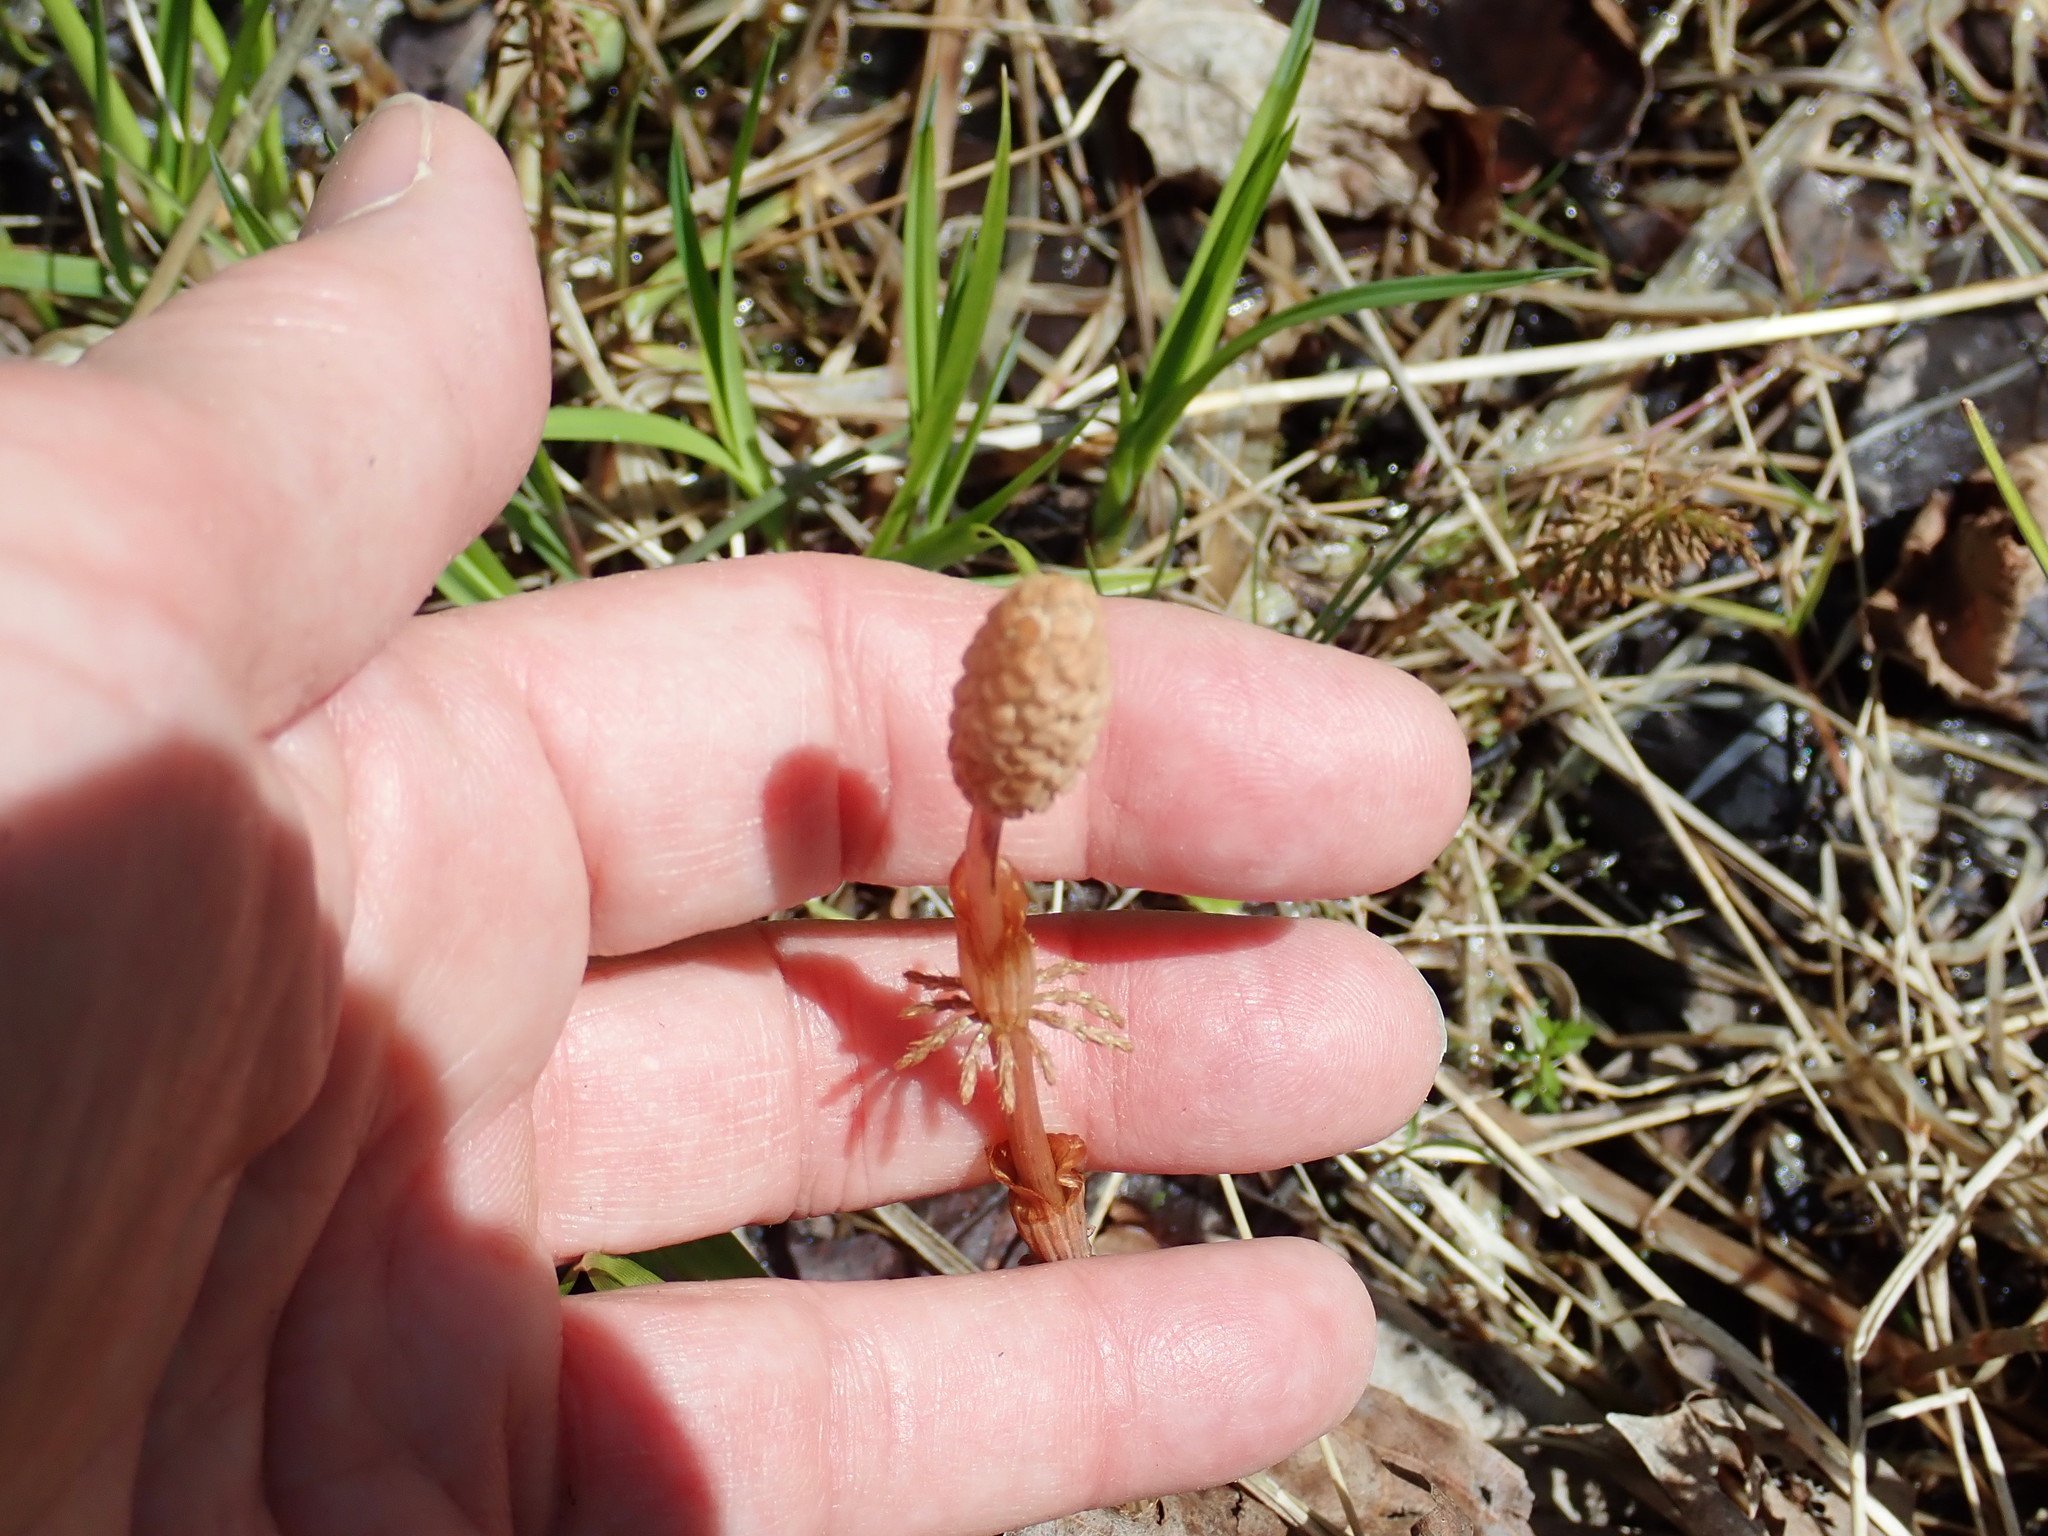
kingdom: Plantae
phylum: Tracheophyta
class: Polypodiopsida
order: Equisetales
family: Equisetaceae
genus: Equisetum
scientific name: Equisetum sylvaticum
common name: Wood horsetail
